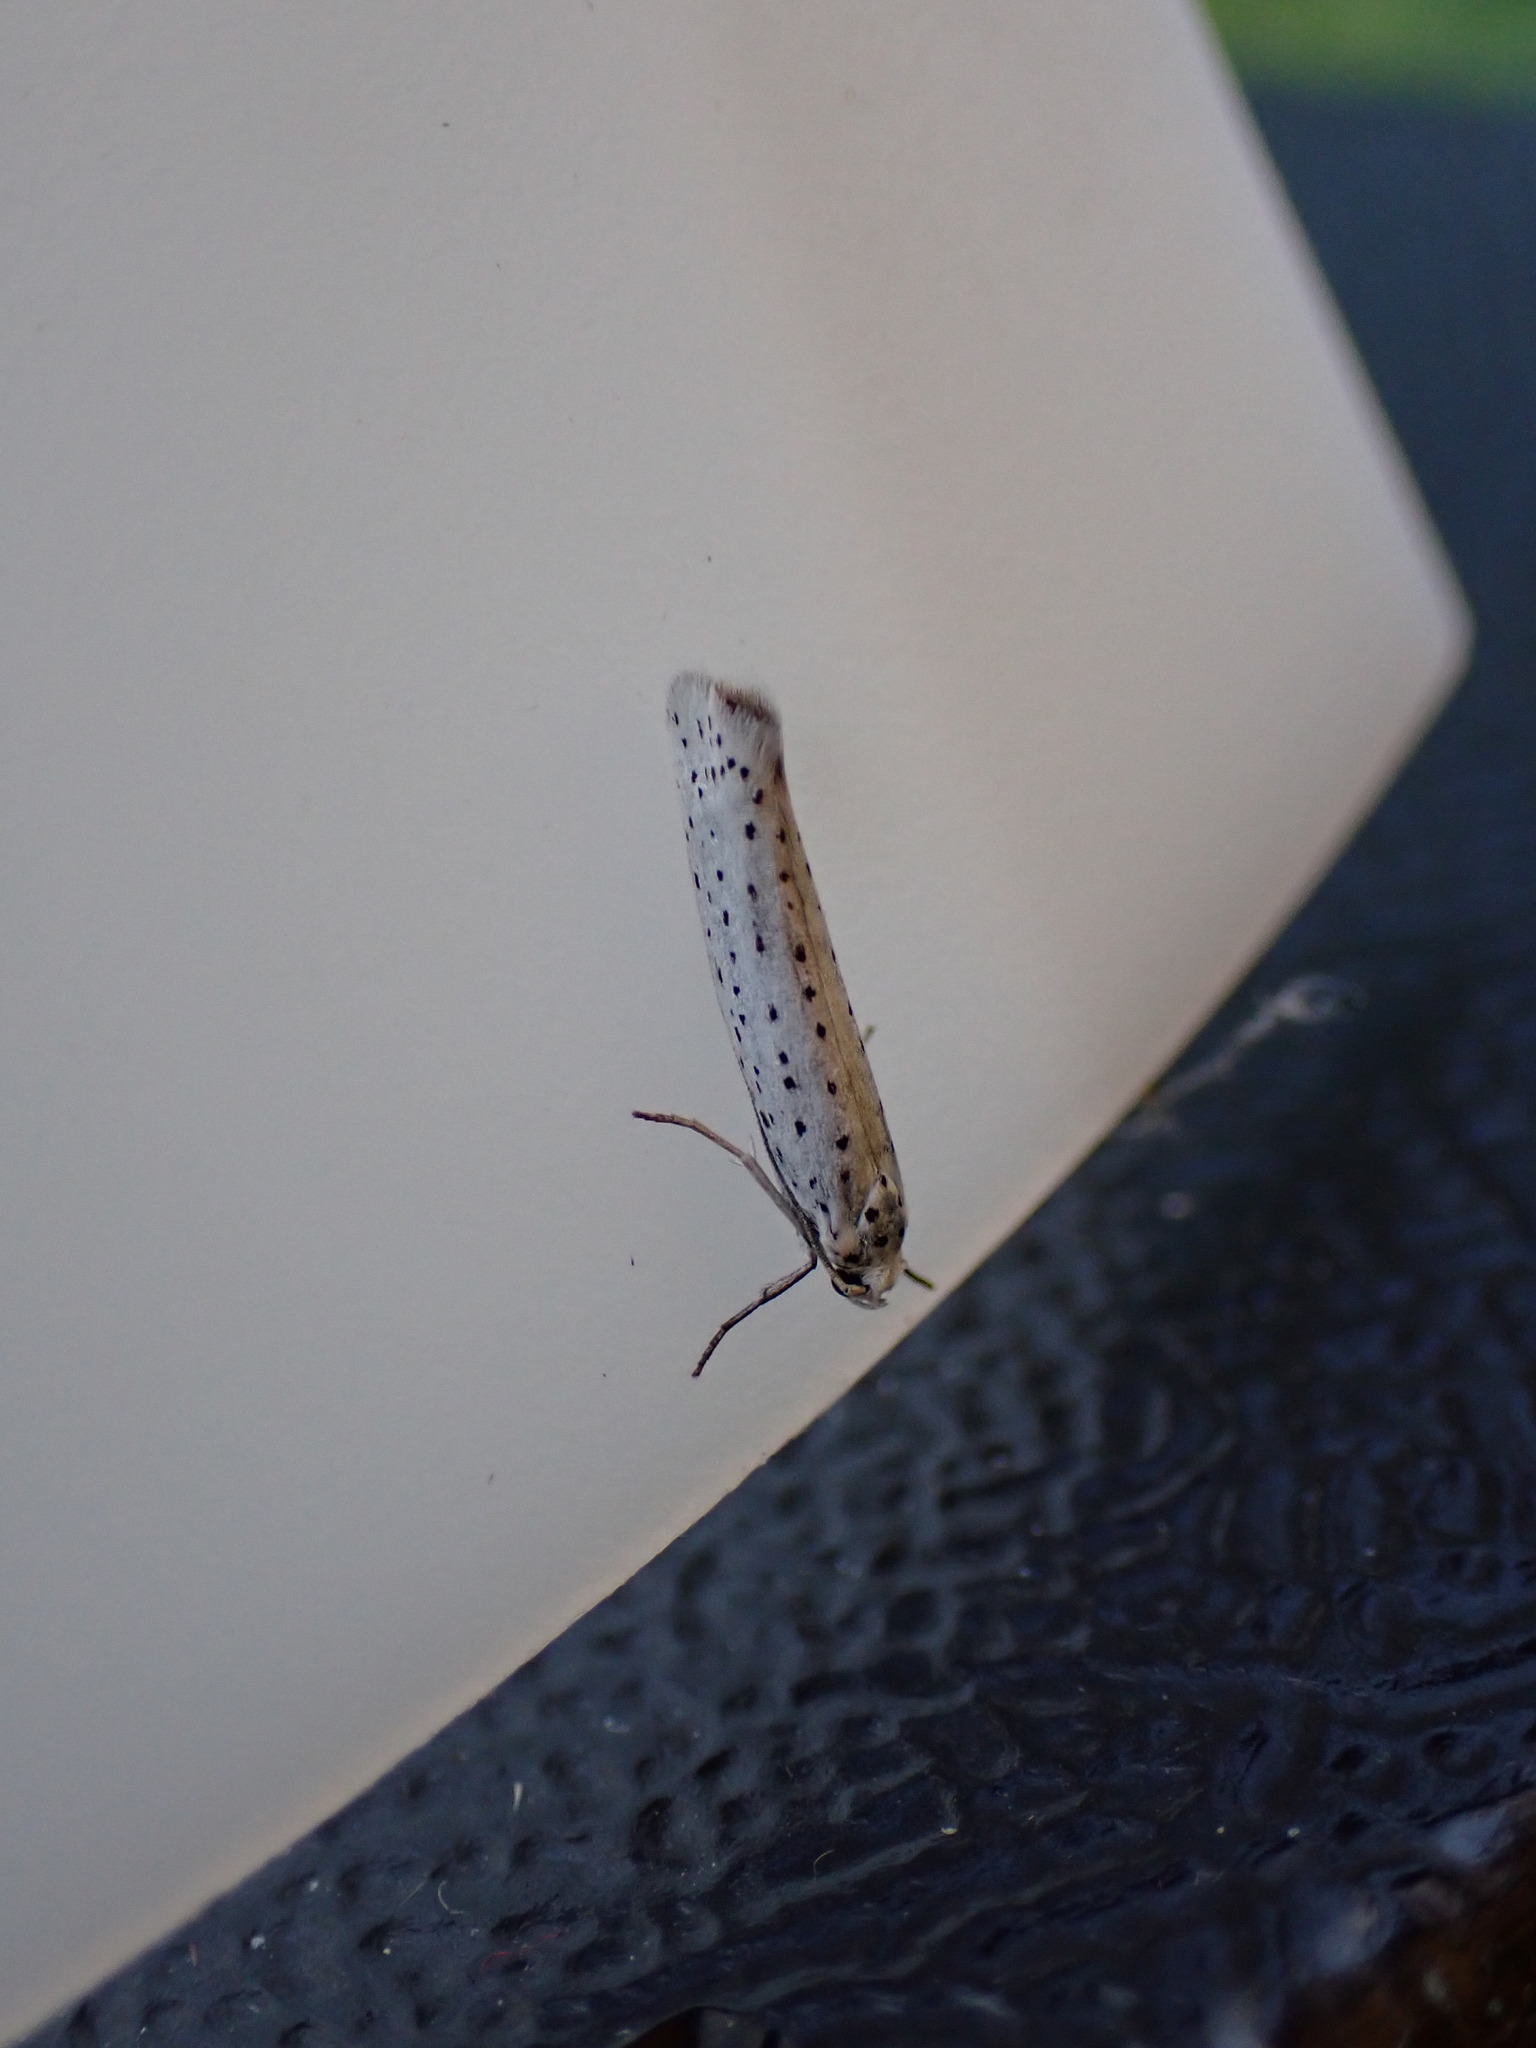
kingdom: Animalia
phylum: Arthropoda
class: Insecta
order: Lepidoptera
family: Yponomeutidae
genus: Yponomeuta
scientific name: Yponomeuta evonymella
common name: Bird-cherry ermine
